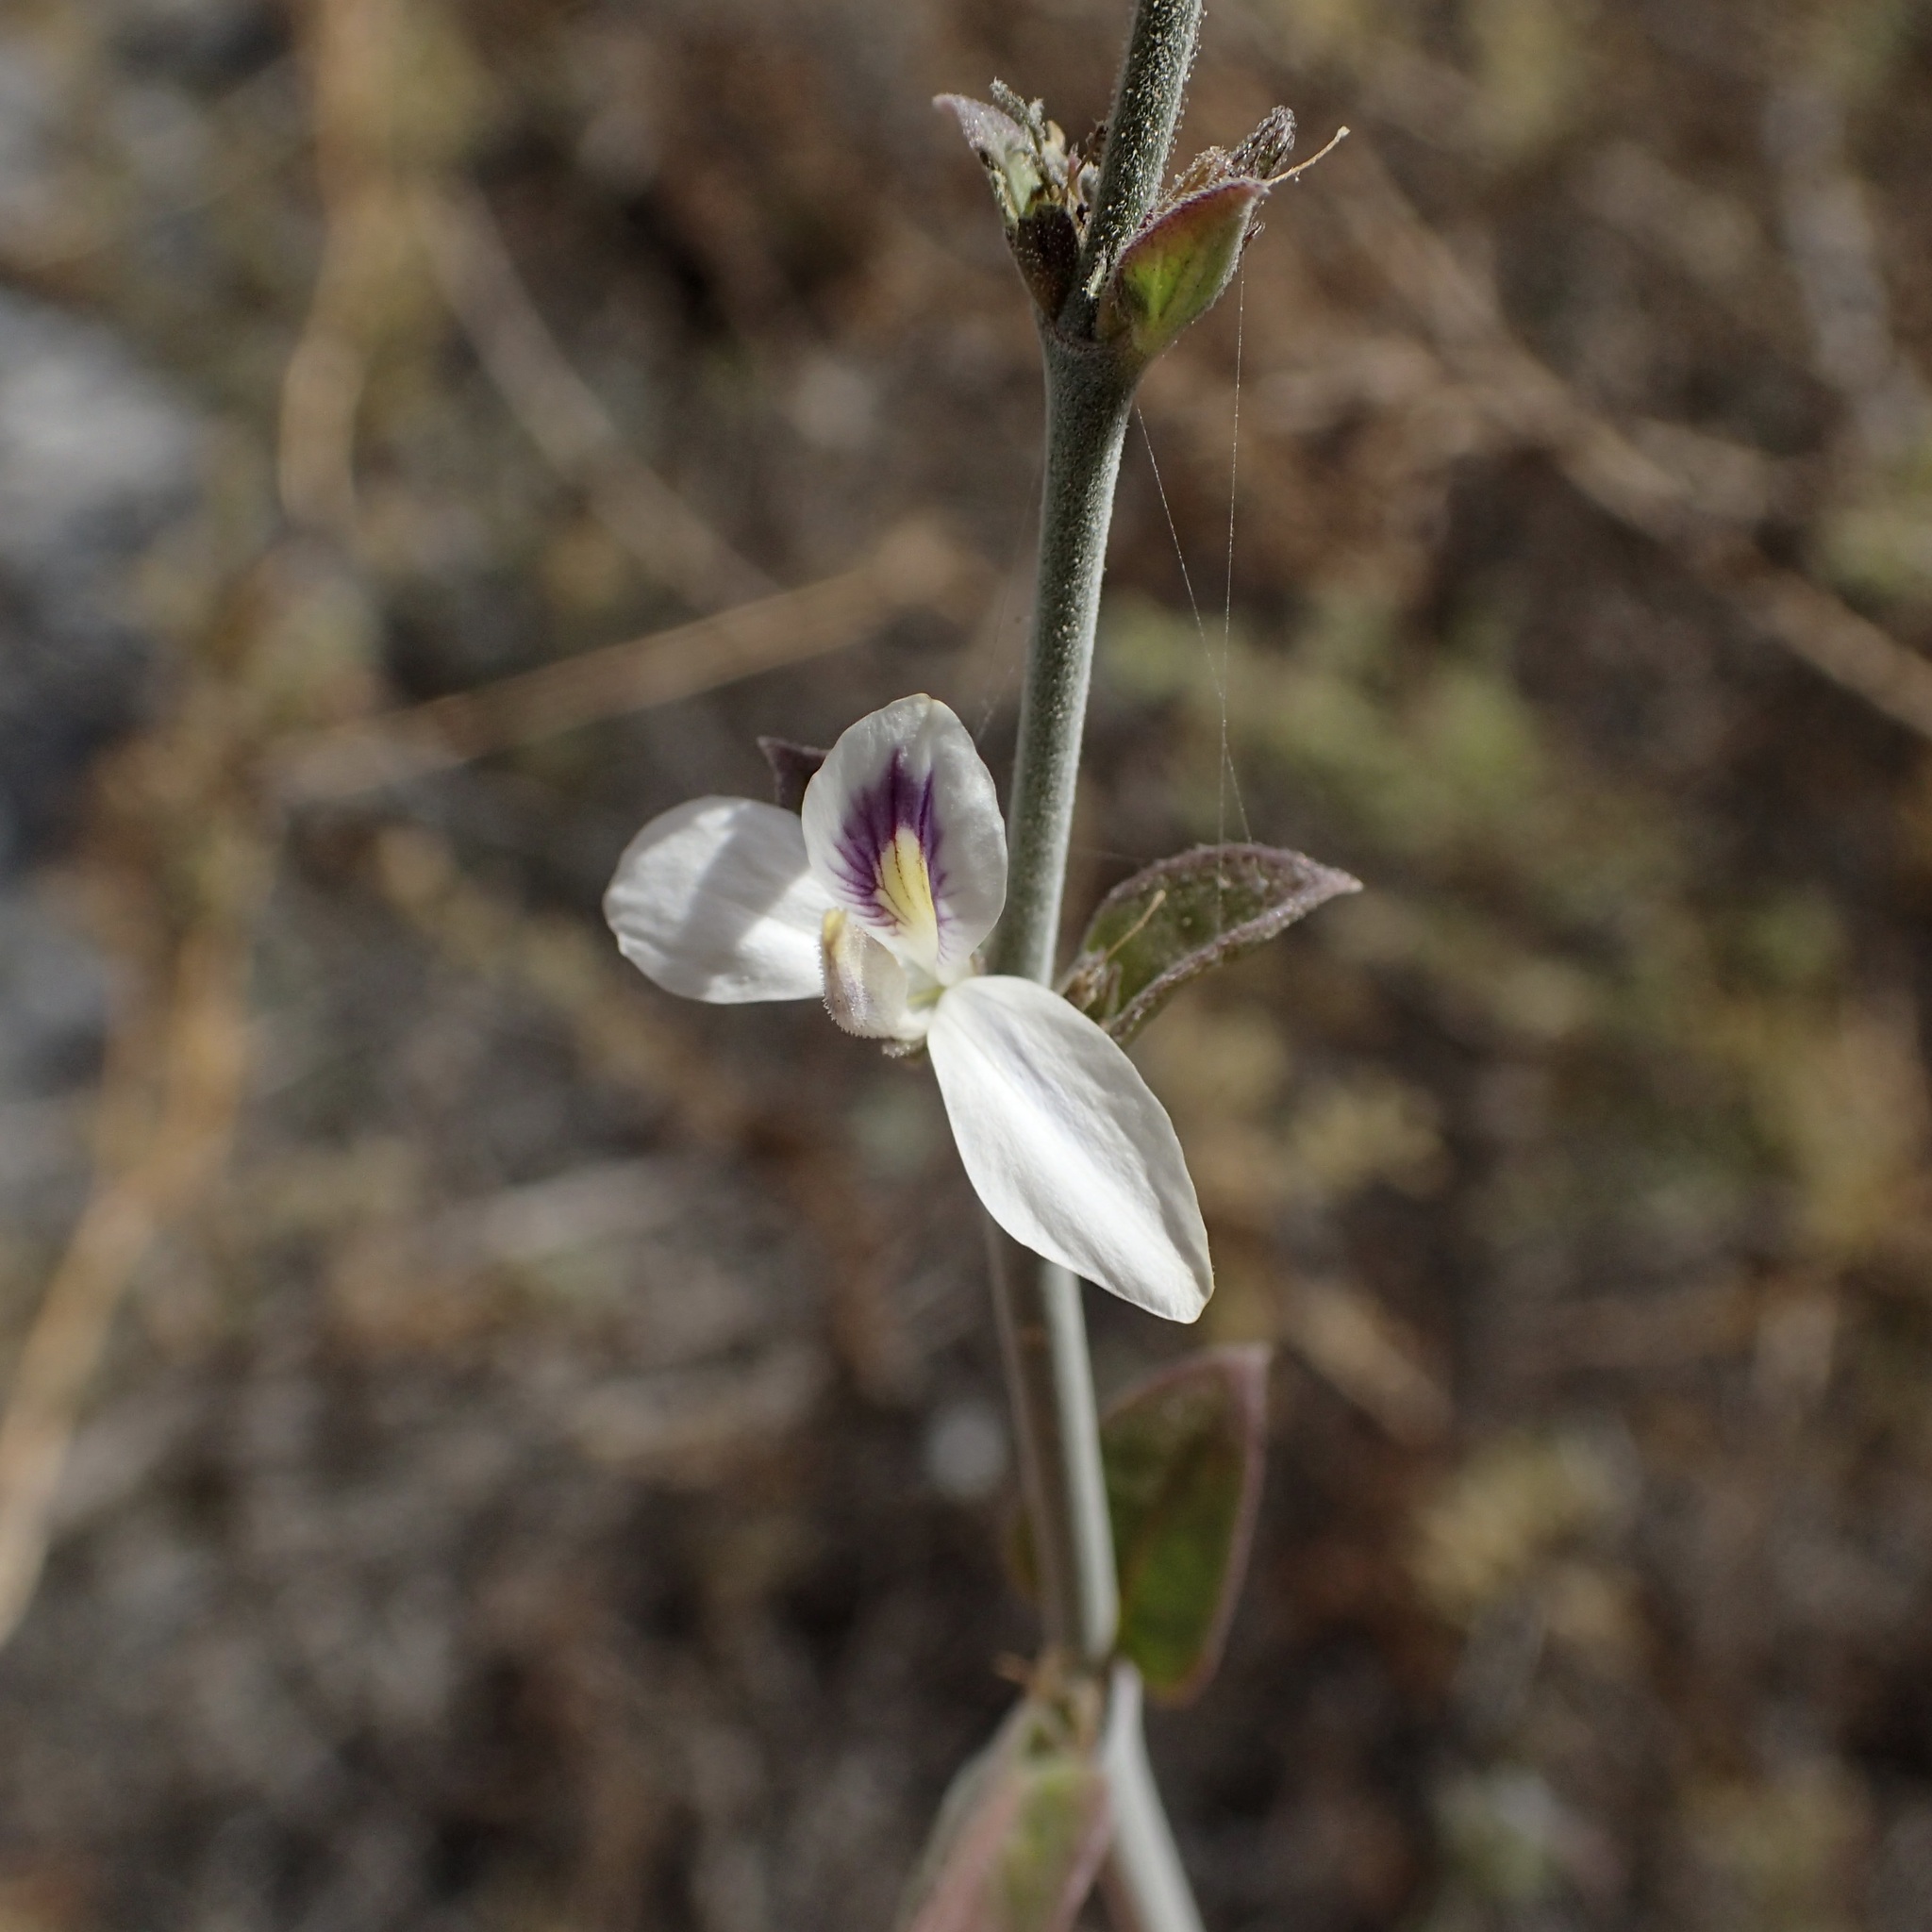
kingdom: Plantae
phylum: Tracheophyta
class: Magnoliopsida
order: Lamiales
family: Acanthaceae
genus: Carlowrightia
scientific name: Carlowrightia arizonica
